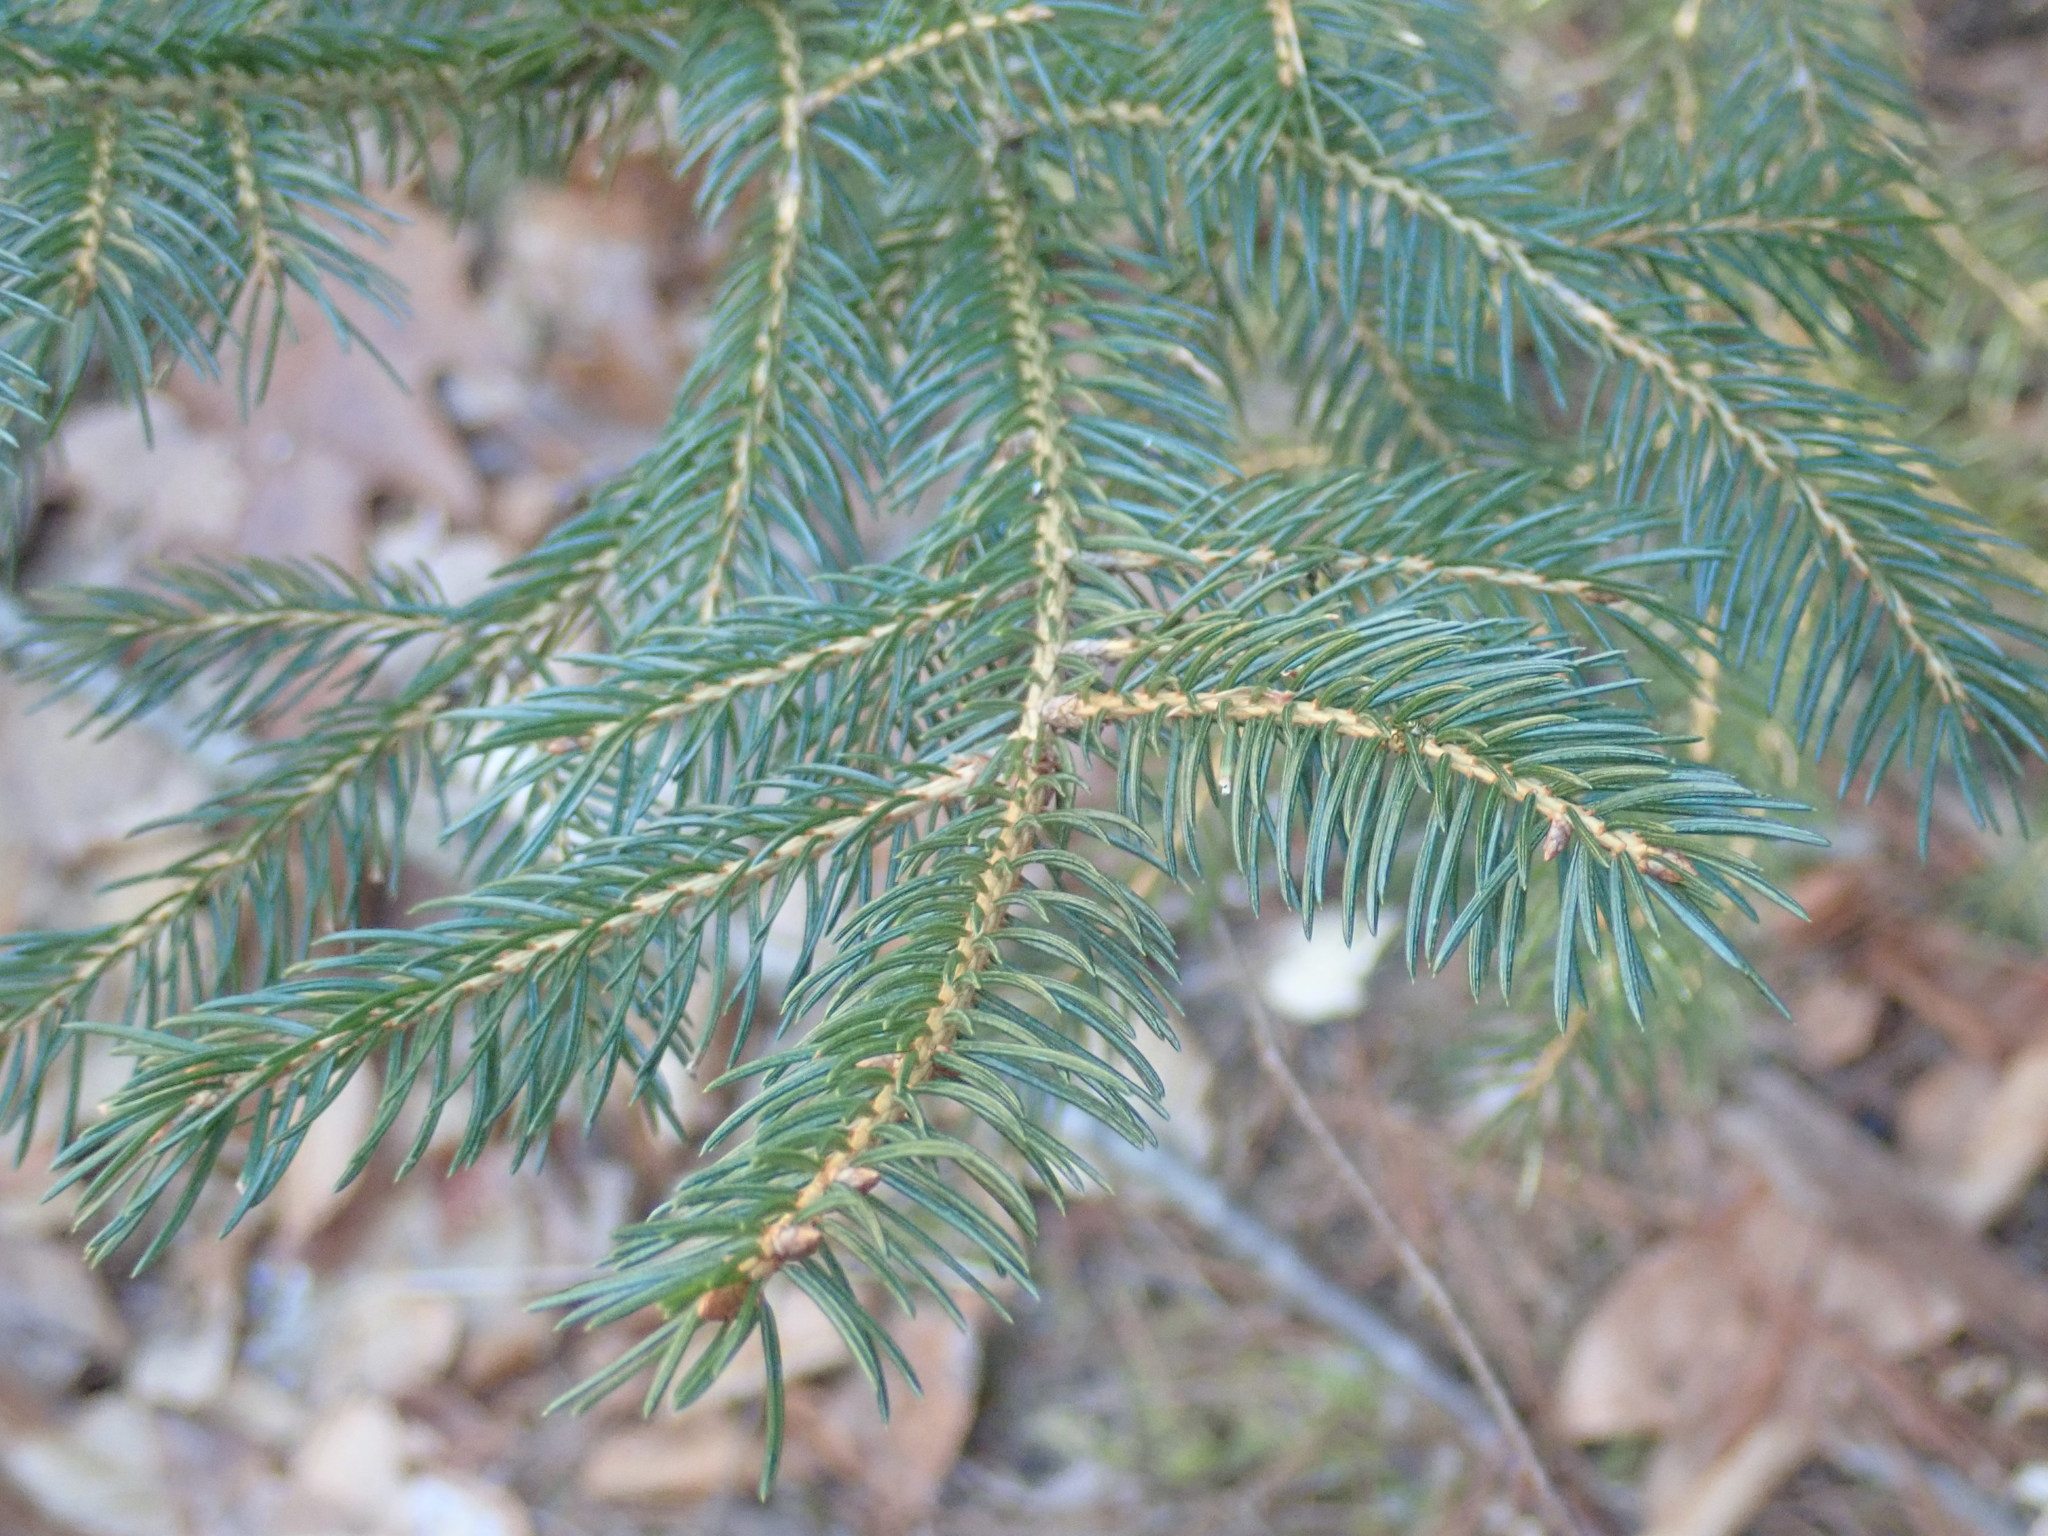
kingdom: Plantae
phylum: Tracheophyta
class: Pinopsida
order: Pinales
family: Pinaceae
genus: Picea
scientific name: Picea abies
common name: Norway spruce
